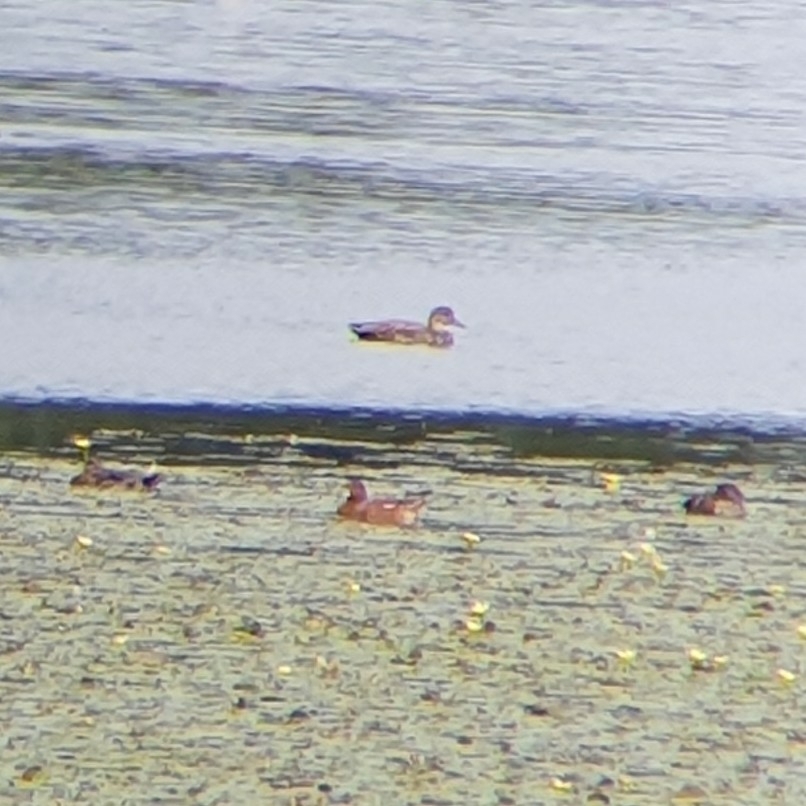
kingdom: Animalia
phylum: Chordata
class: Aves
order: Anseriformes
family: Anatidae
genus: Mareca
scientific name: Mareca penelope
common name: Eurasian wigeon
